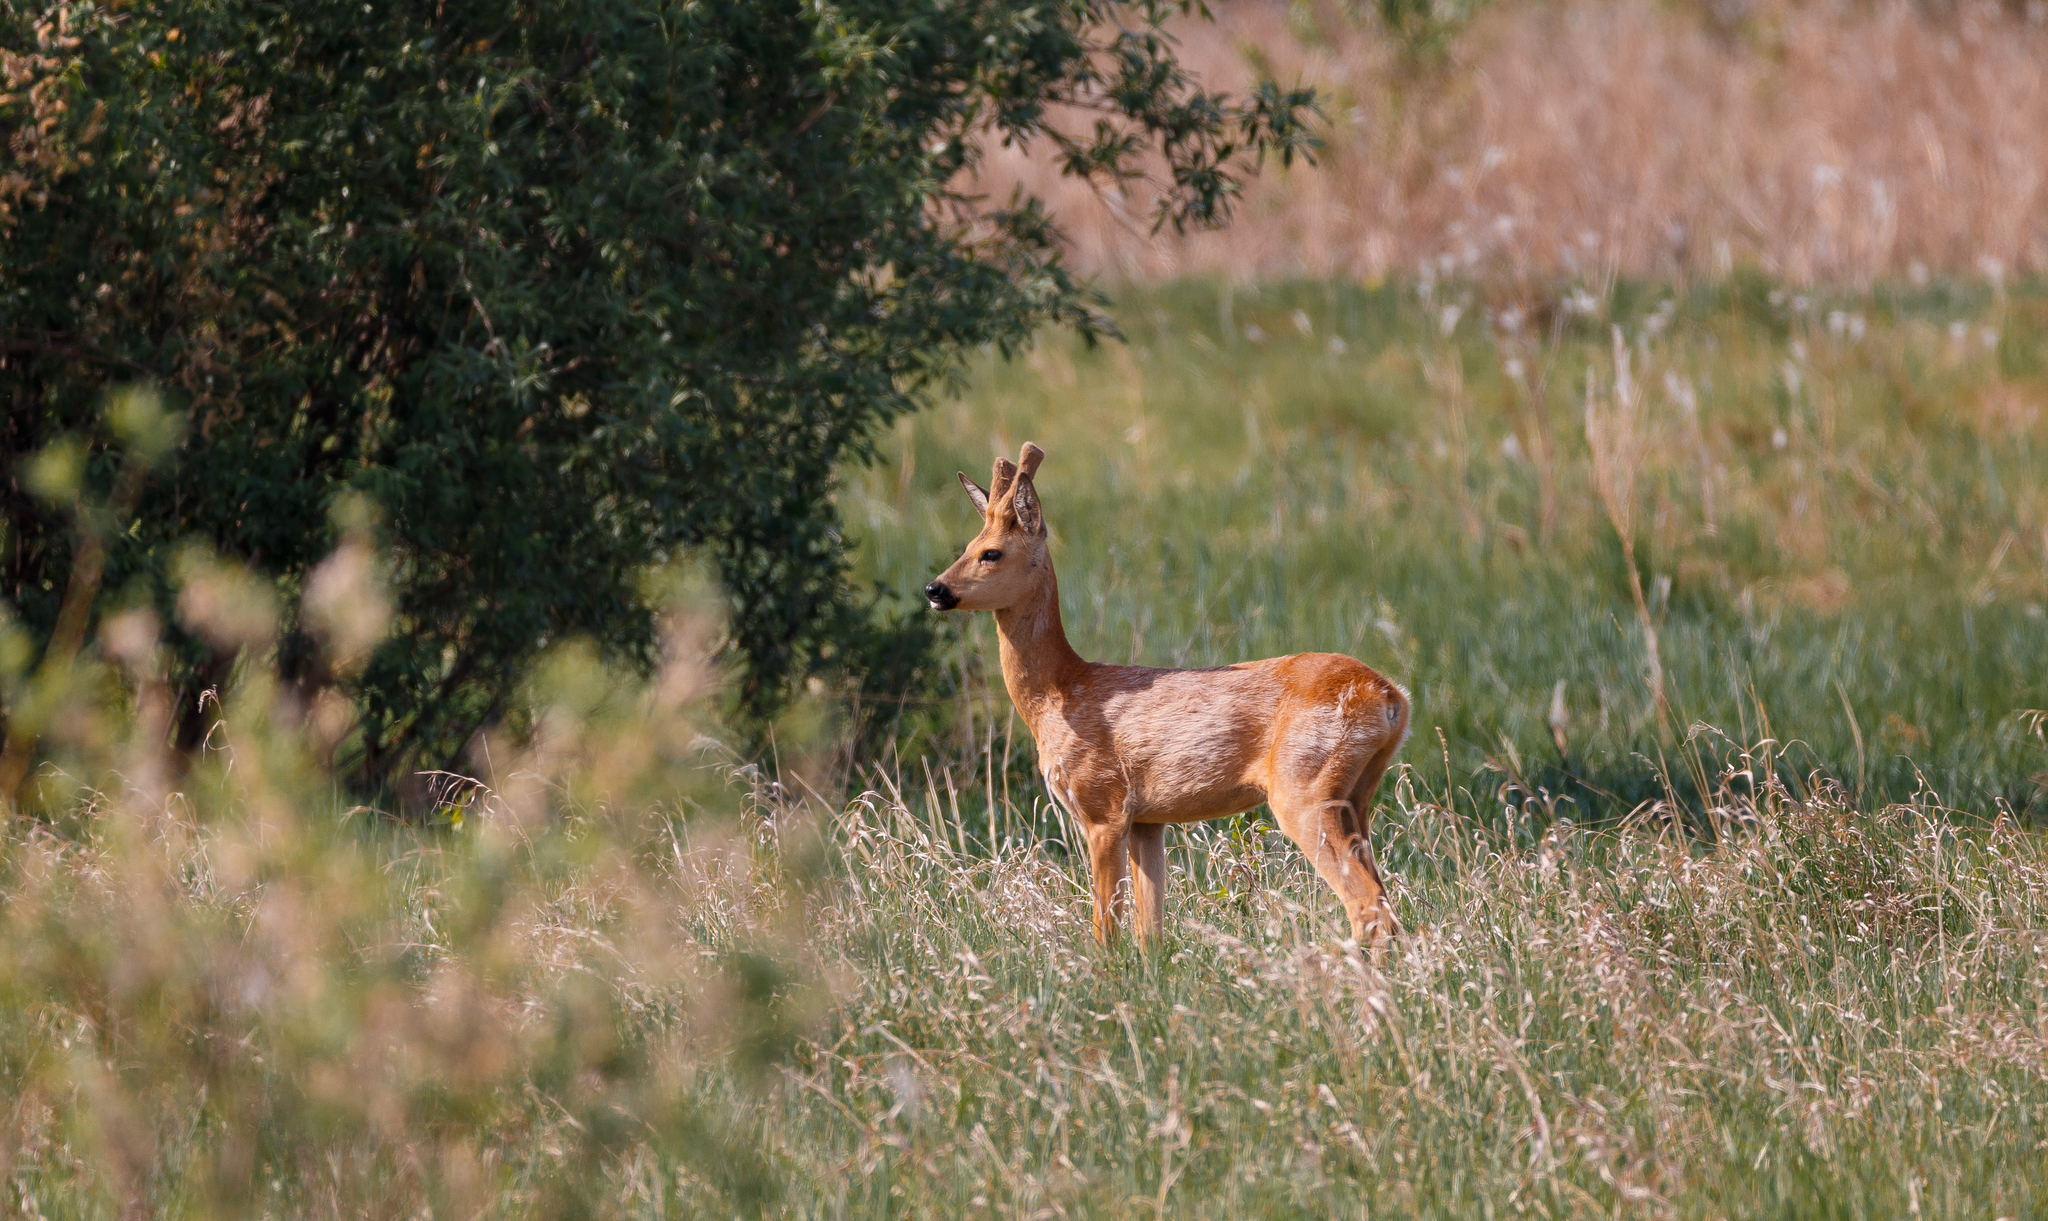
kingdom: Animalia
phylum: Chordata
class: Mammalia
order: Artiodactyla
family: Cervidae
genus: Capreolus
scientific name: Capreolus pygargus
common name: Siberian roe
